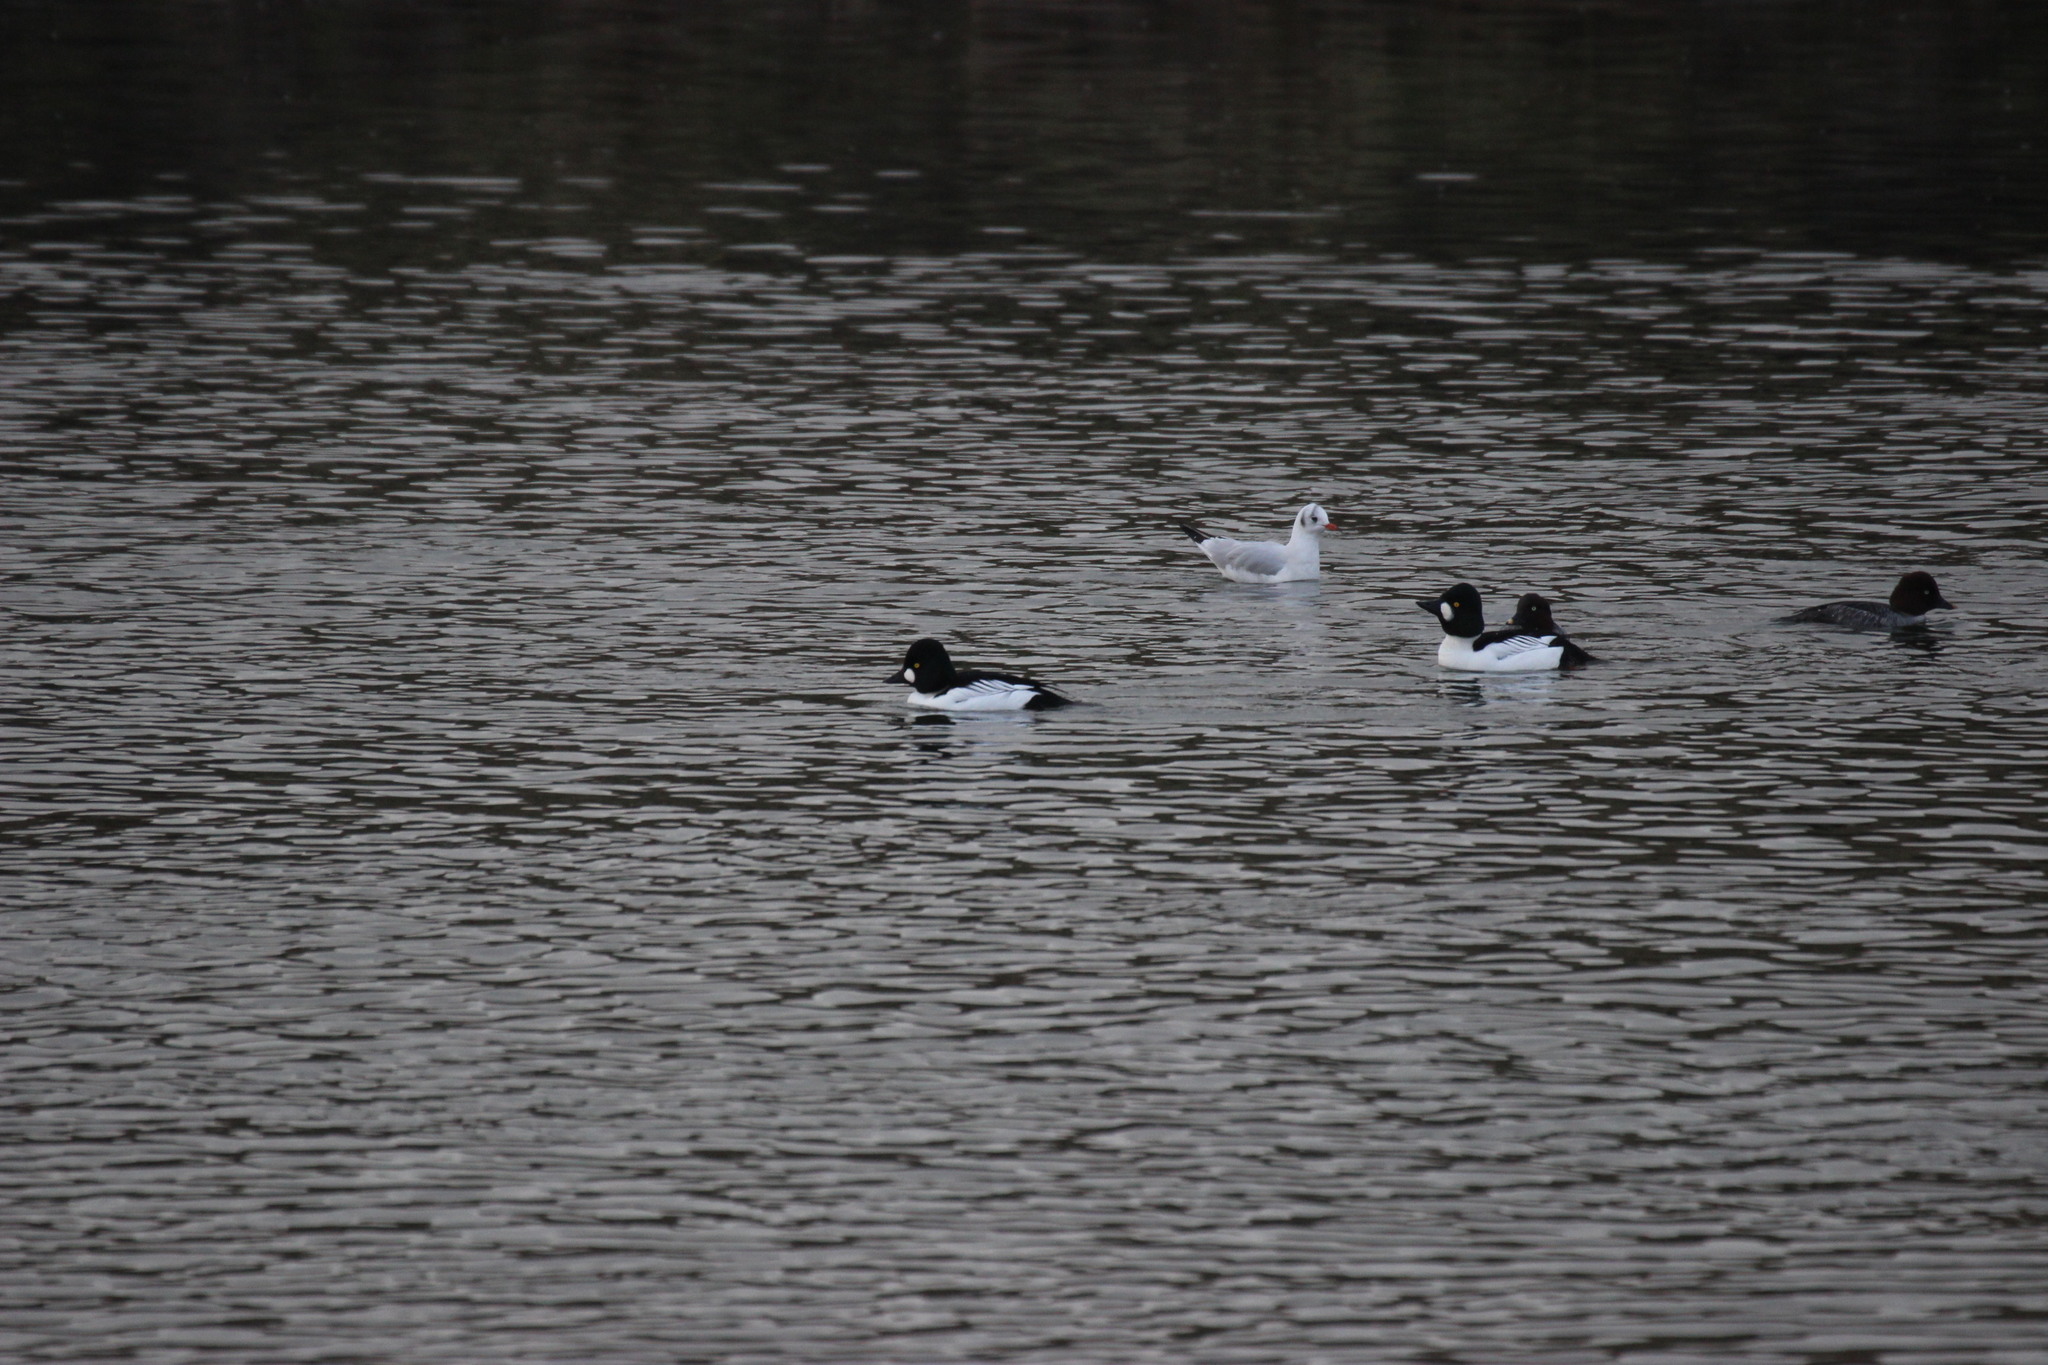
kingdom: Animalia
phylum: Chordata
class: Aves
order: Anseriformes
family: Anatidae
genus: Bucephala
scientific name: Bucephala clangula
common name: Common goldeneye
